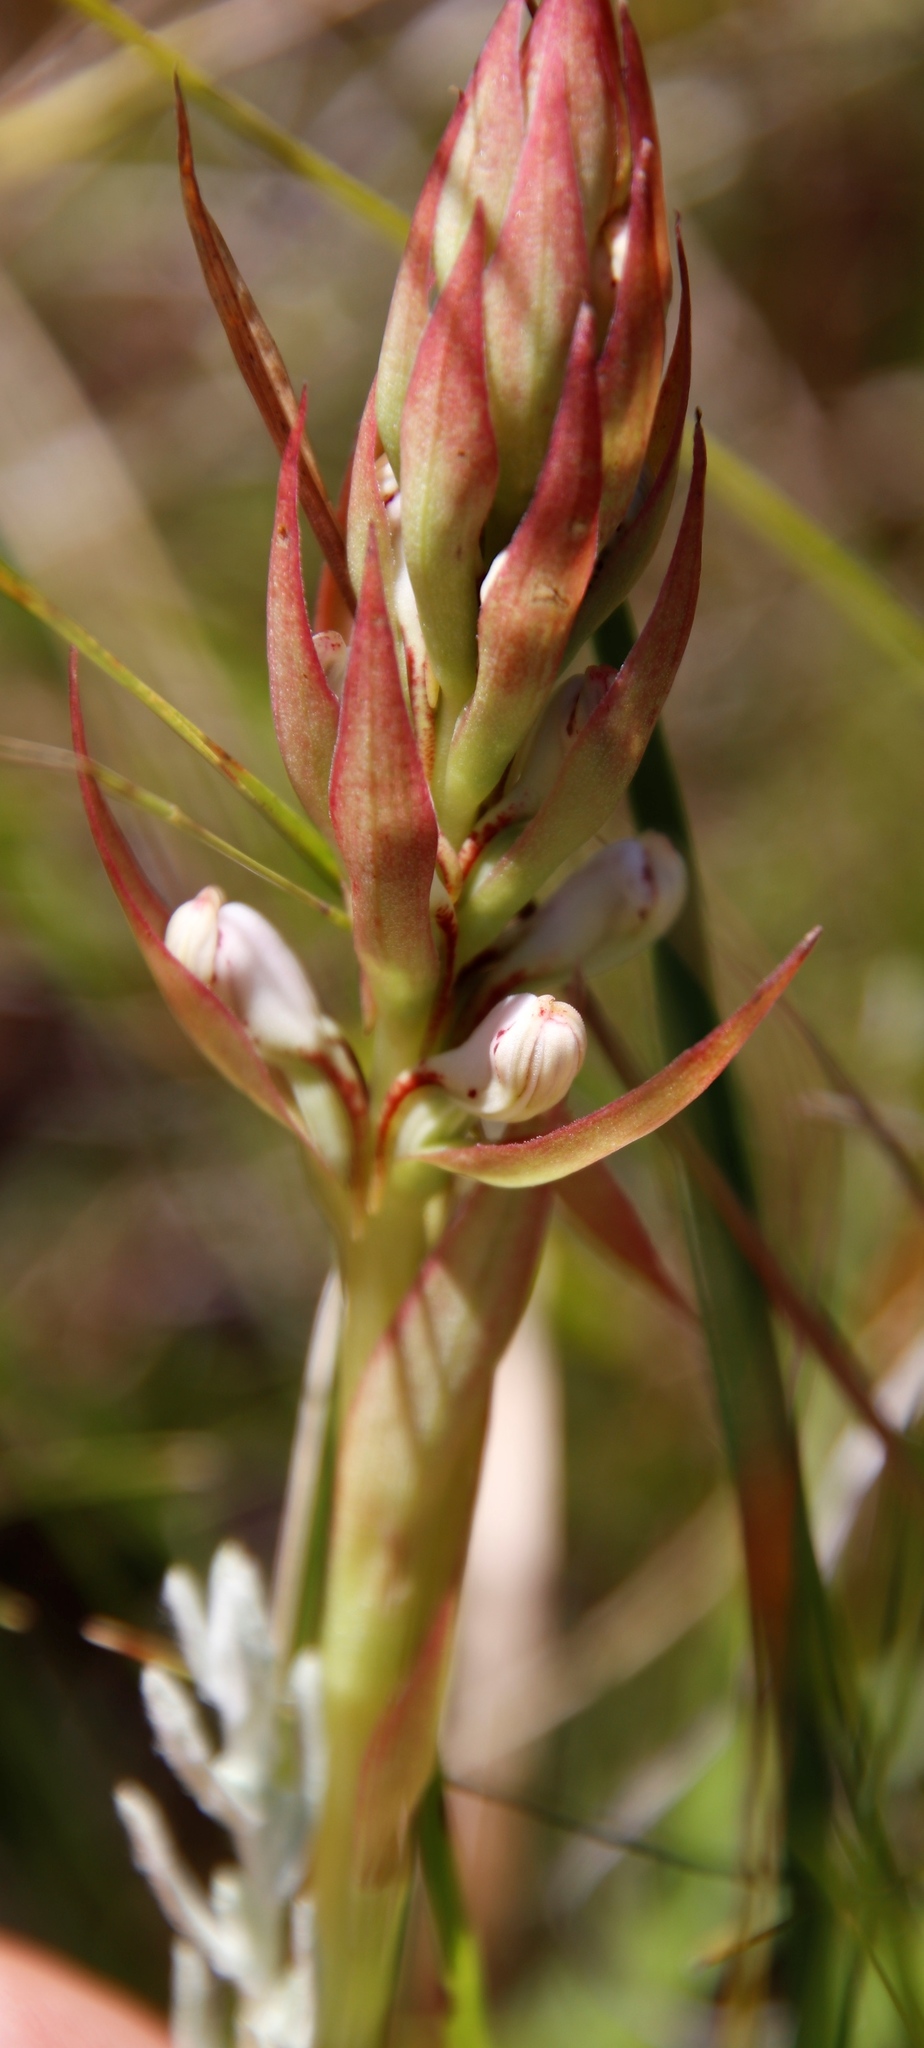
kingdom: Plantae
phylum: Tracheophyta
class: Liliopsida
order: Asparagales
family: Orchidaceae
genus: Satyrium
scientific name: Satyrium cristatum
